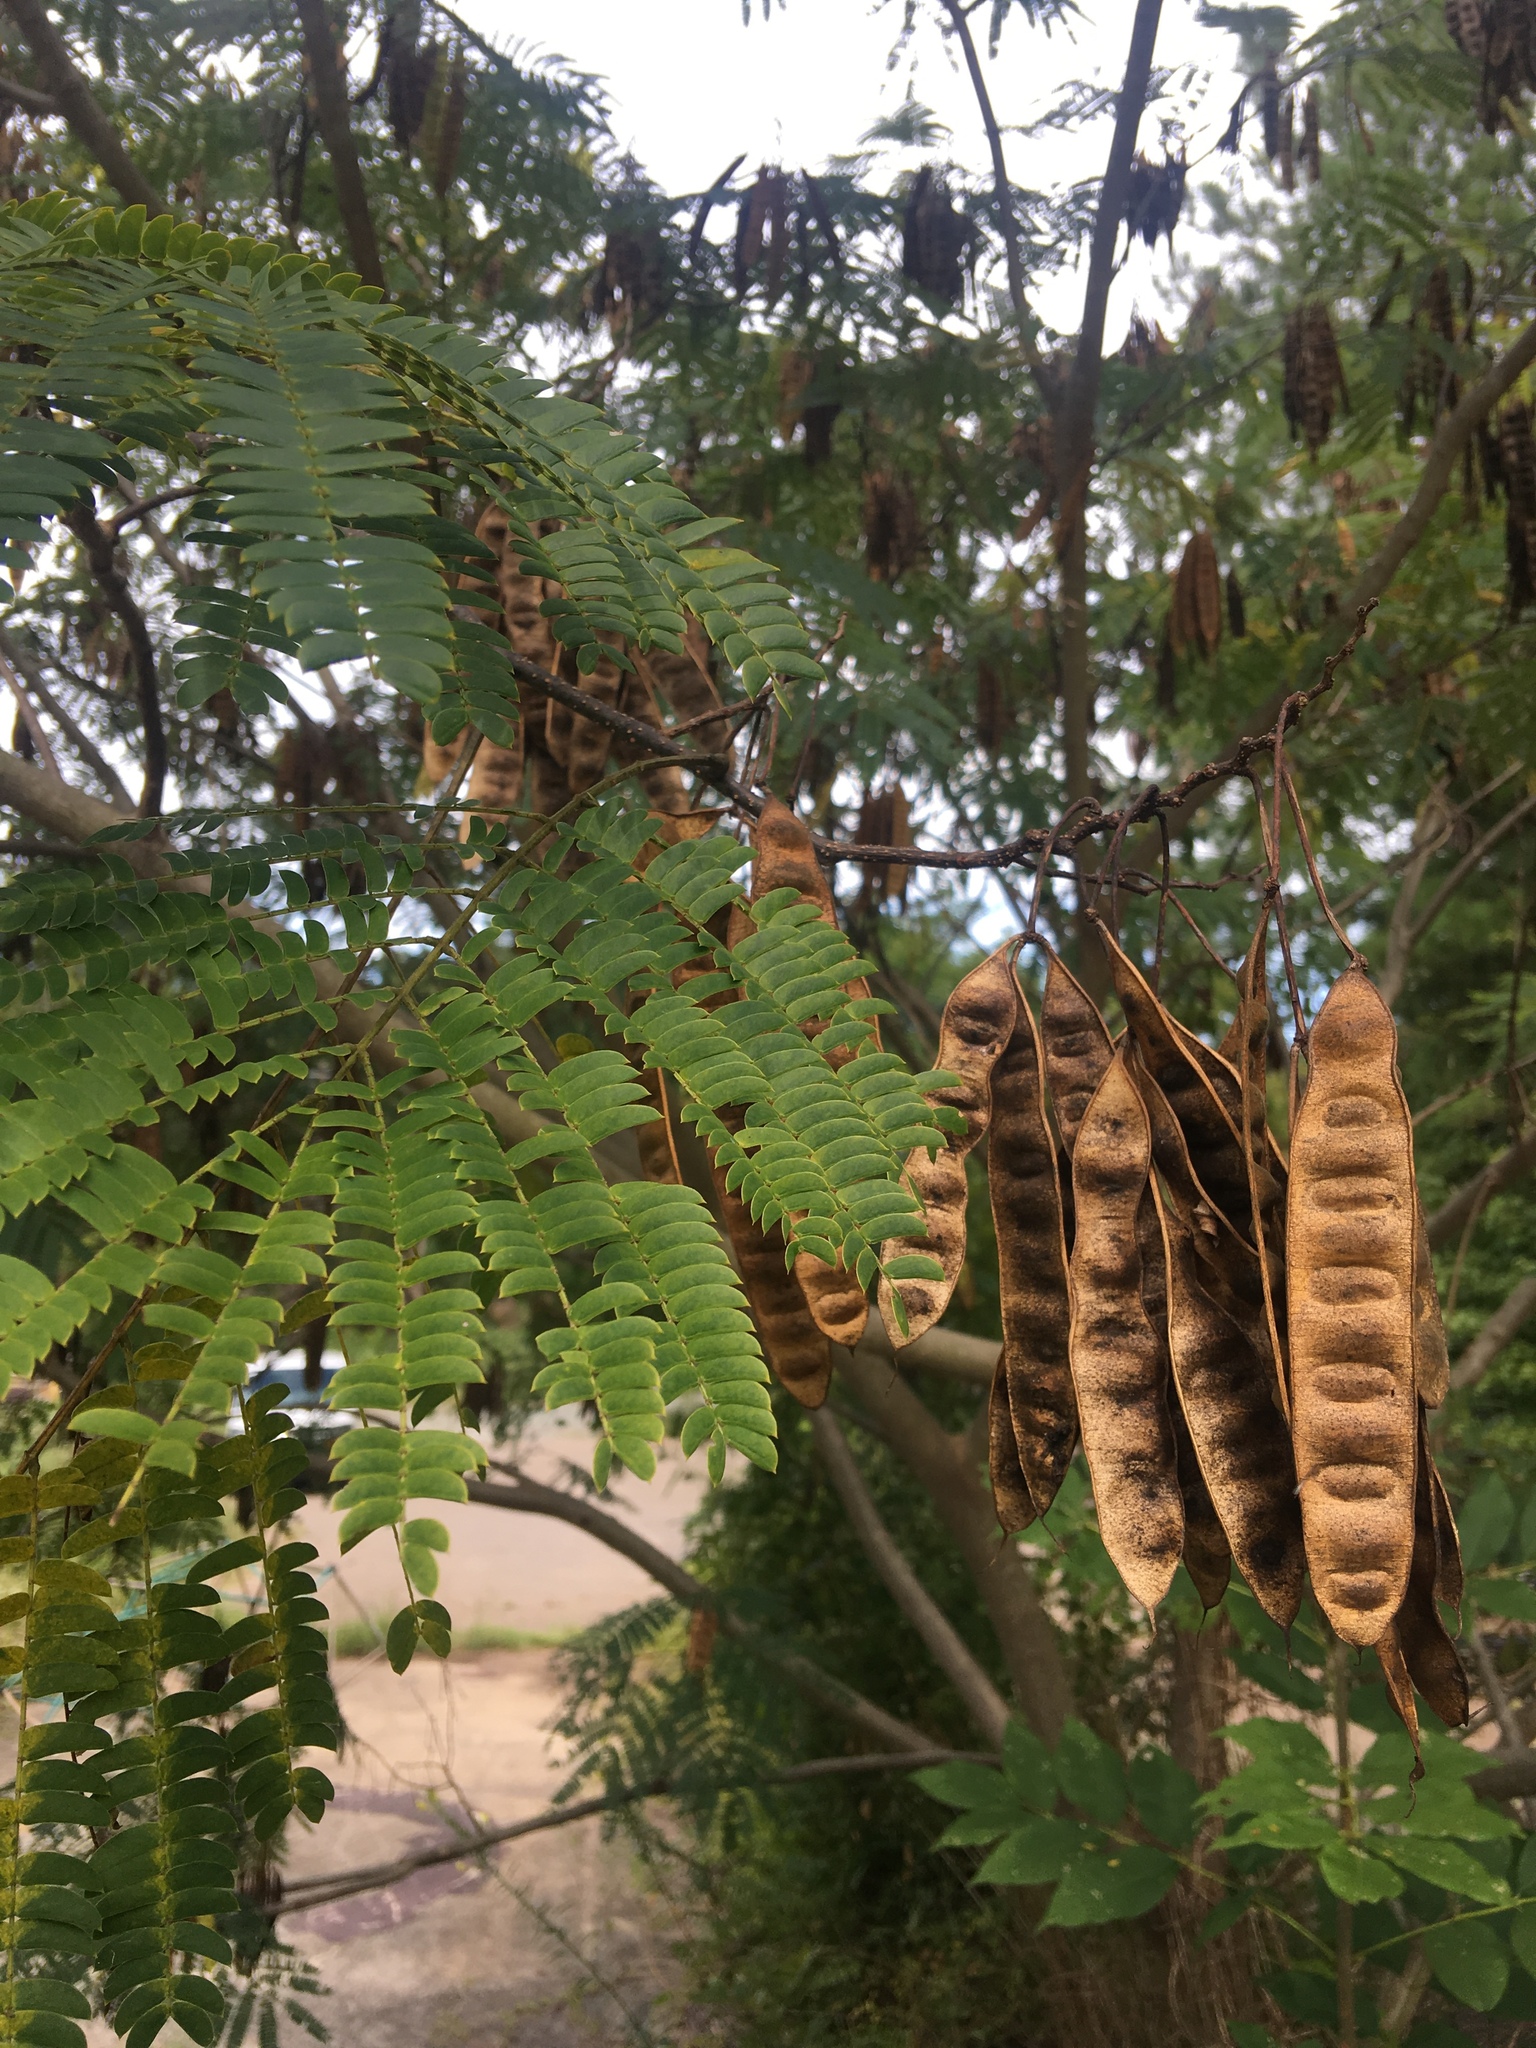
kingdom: Plantae
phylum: Tracheophyta
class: Magnoliopsida
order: Fabales
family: Fabaceae
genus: Albizia
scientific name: Albizia julibrissin
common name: Silktree
